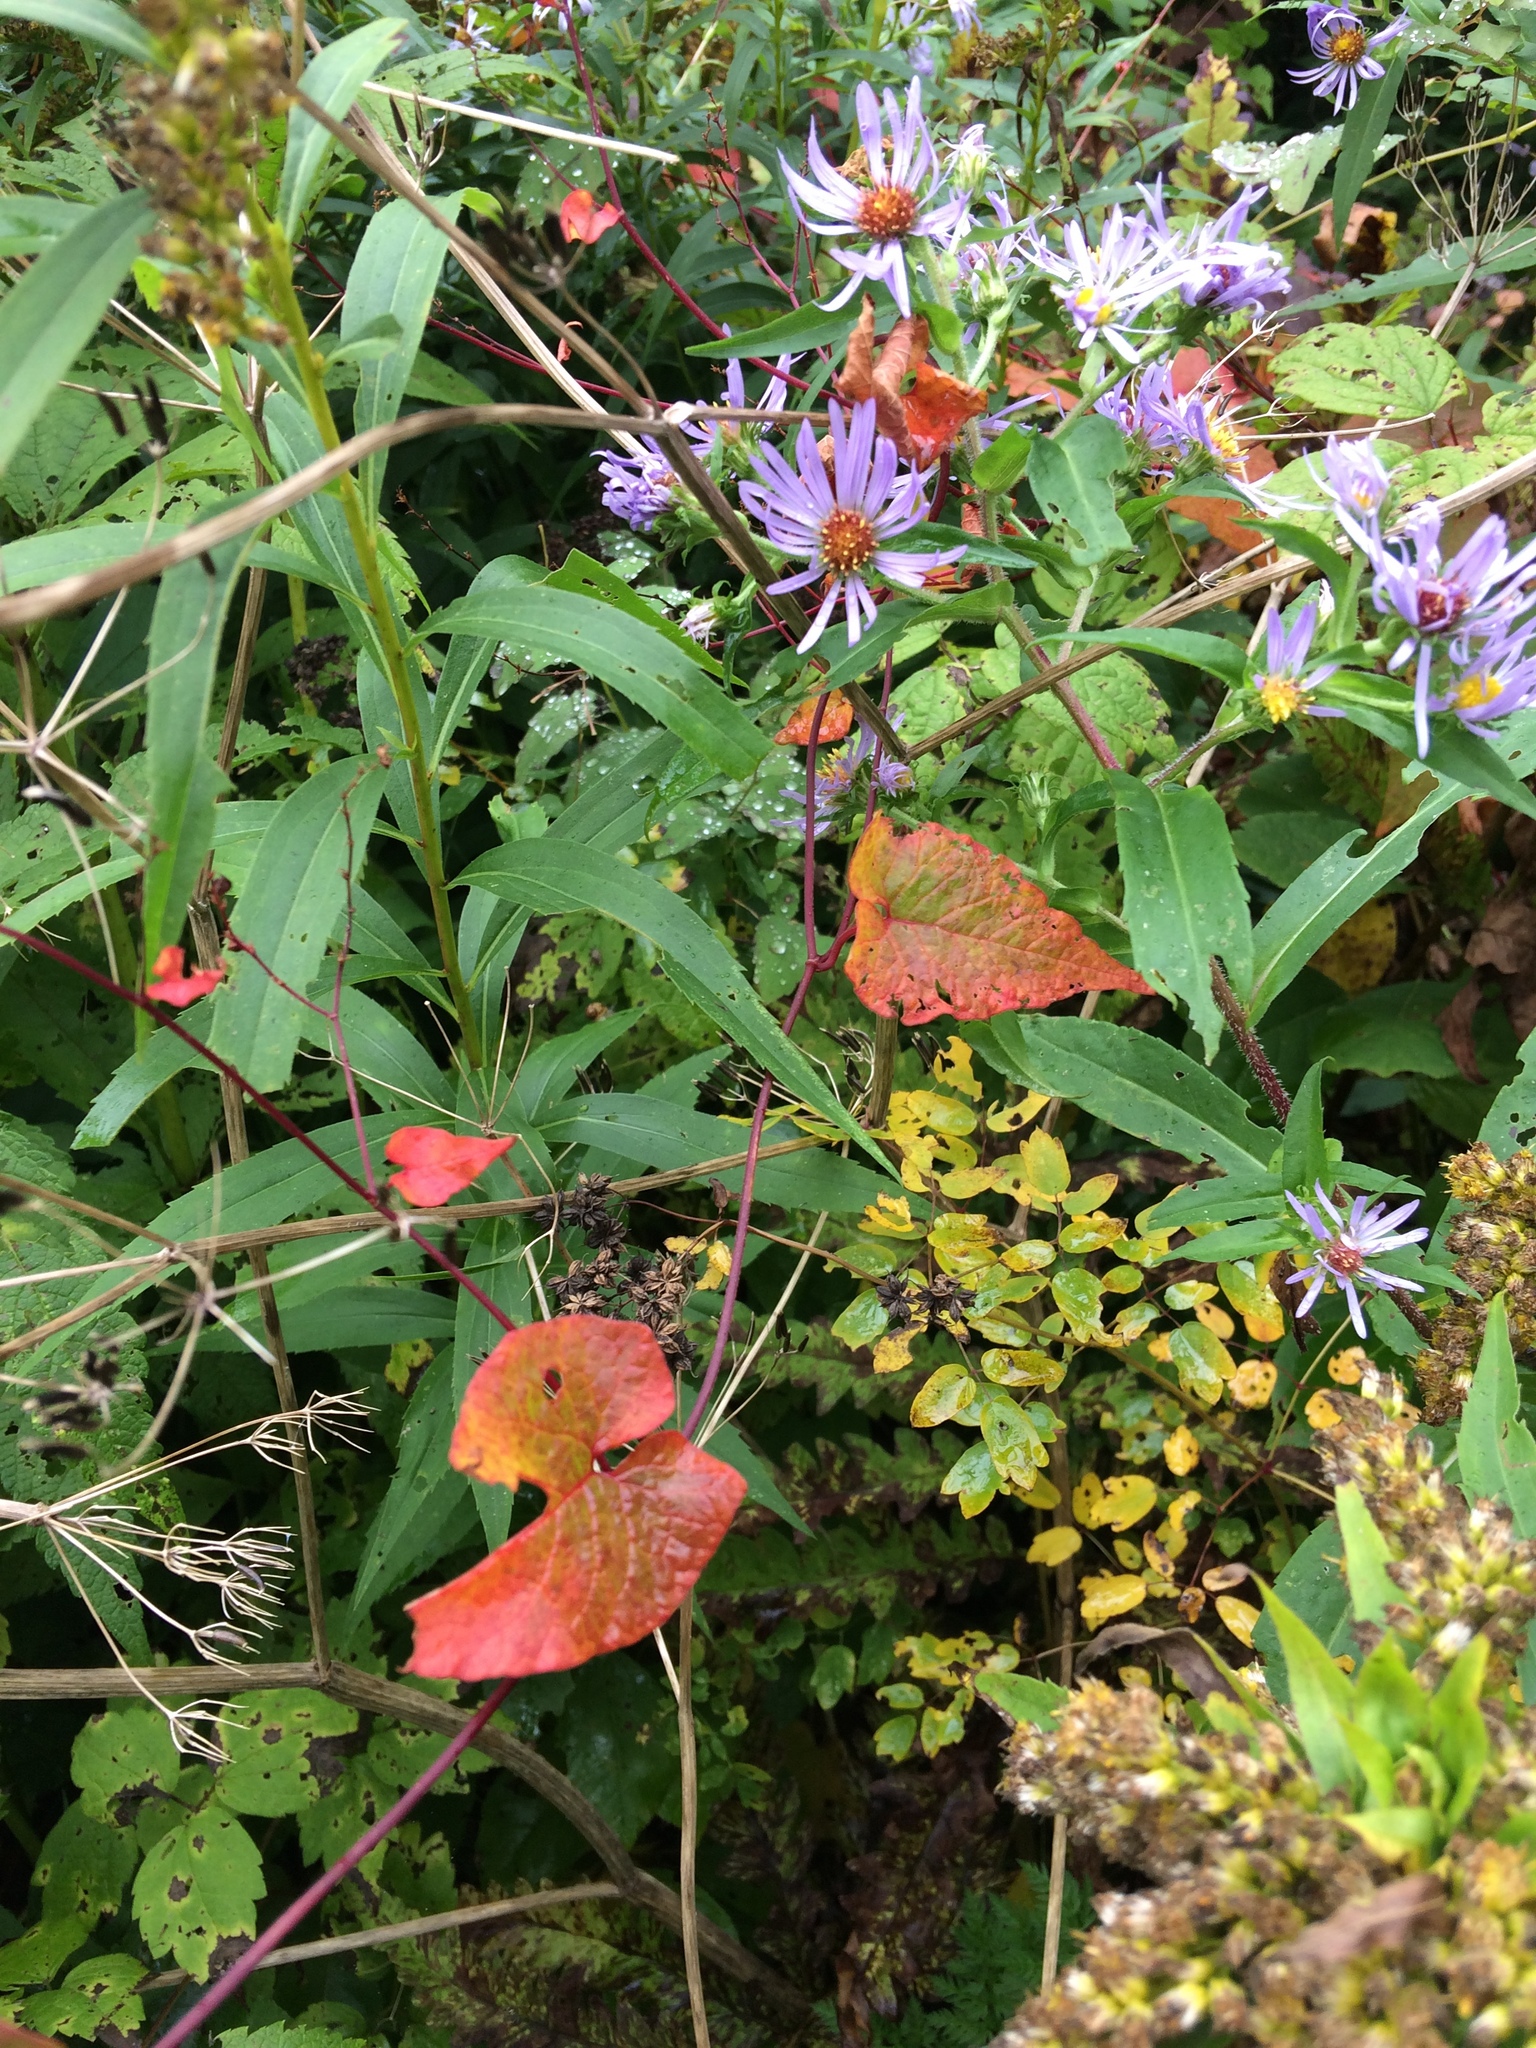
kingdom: Plantae
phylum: Tracheophyta
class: Magnoliopsida
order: Caryophyllales
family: Polygonaceae
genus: Fallopia
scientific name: Fallopia scandens
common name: Climbing false buckwheat
